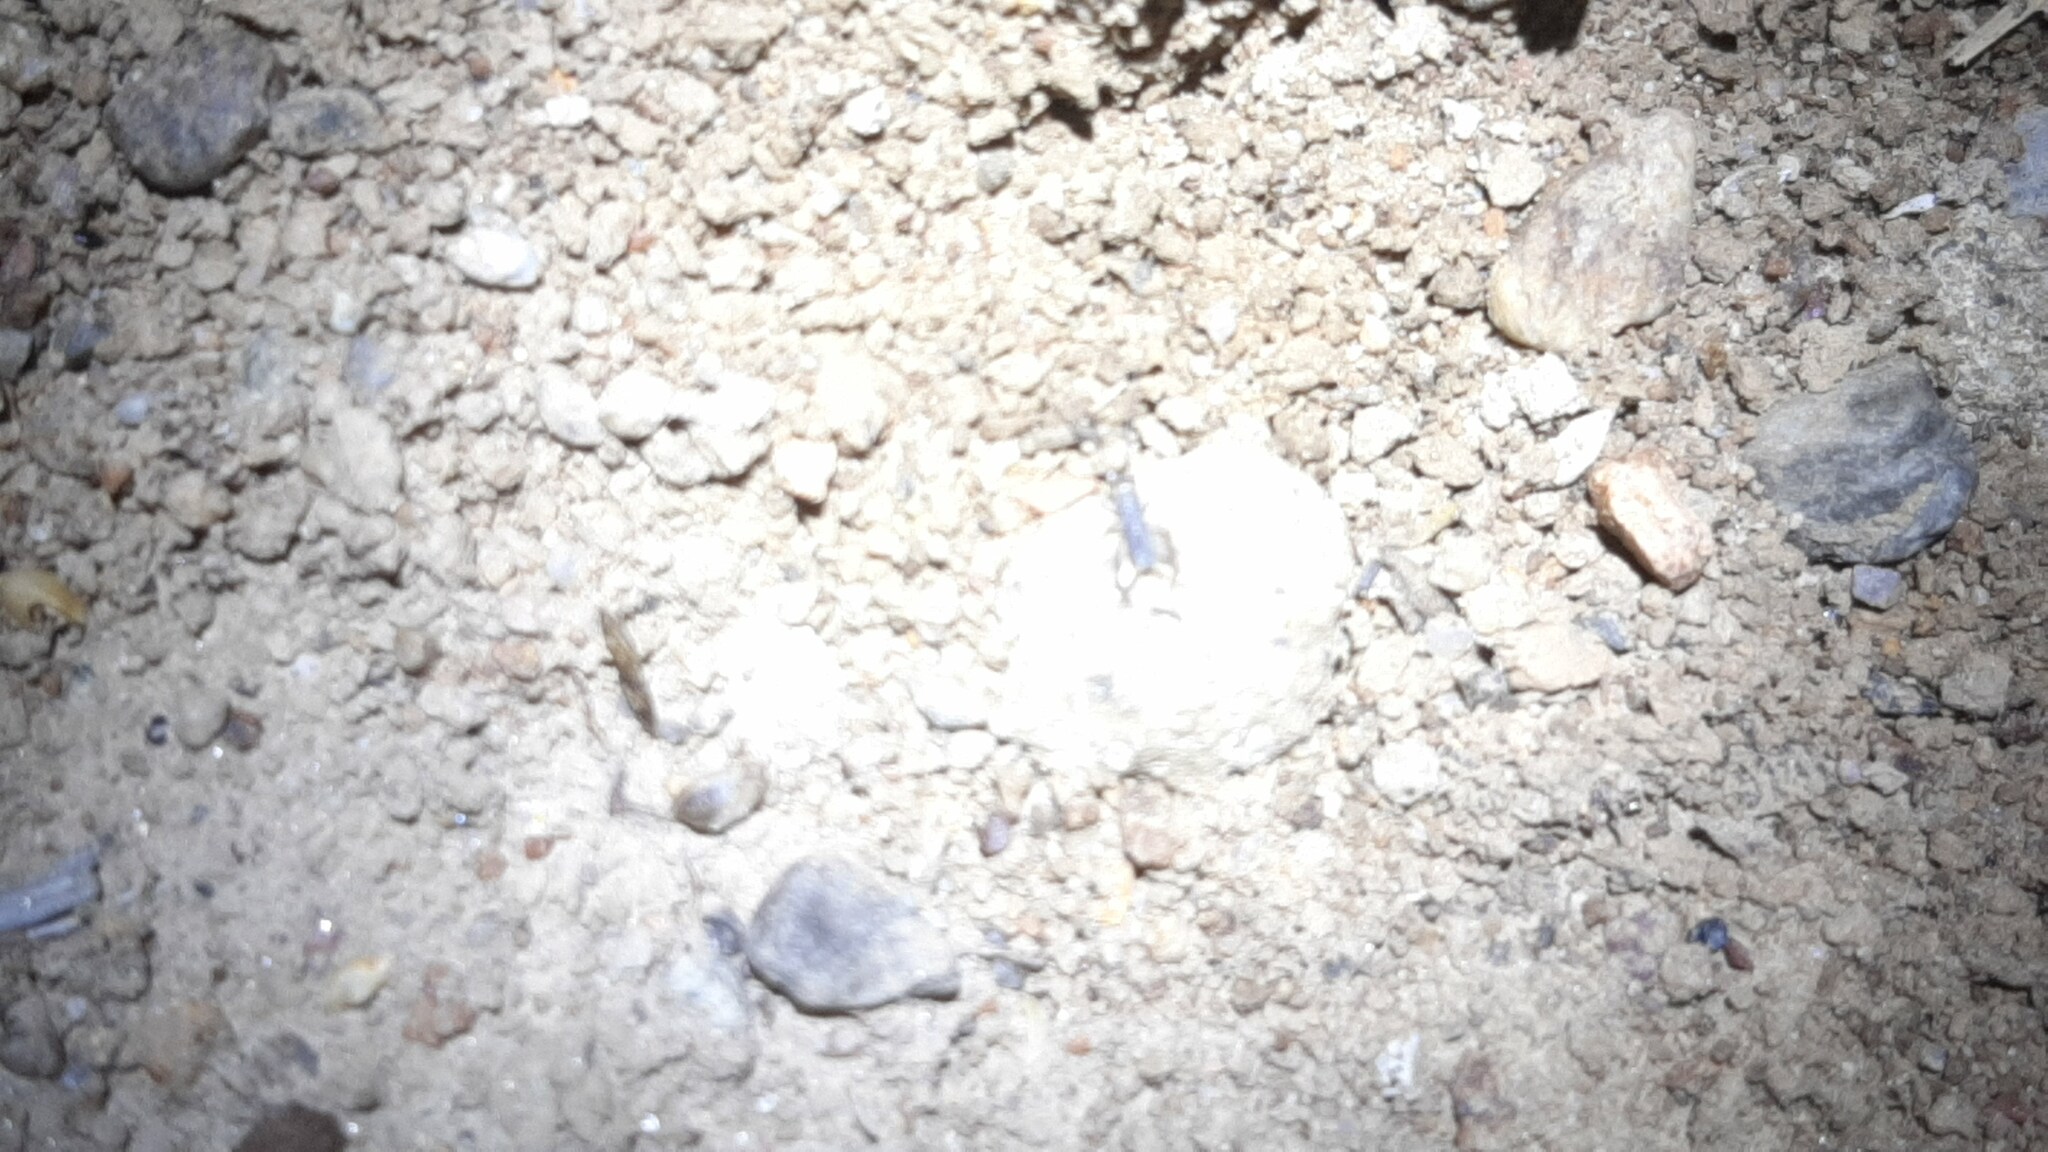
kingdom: Animalia
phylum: Arthropoda
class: Insecta
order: Orthoptera
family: Gryllidae
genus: Eumodicogryllus
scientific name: Eumodicogryllus bordigalensis
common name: Bordeaux cricket
